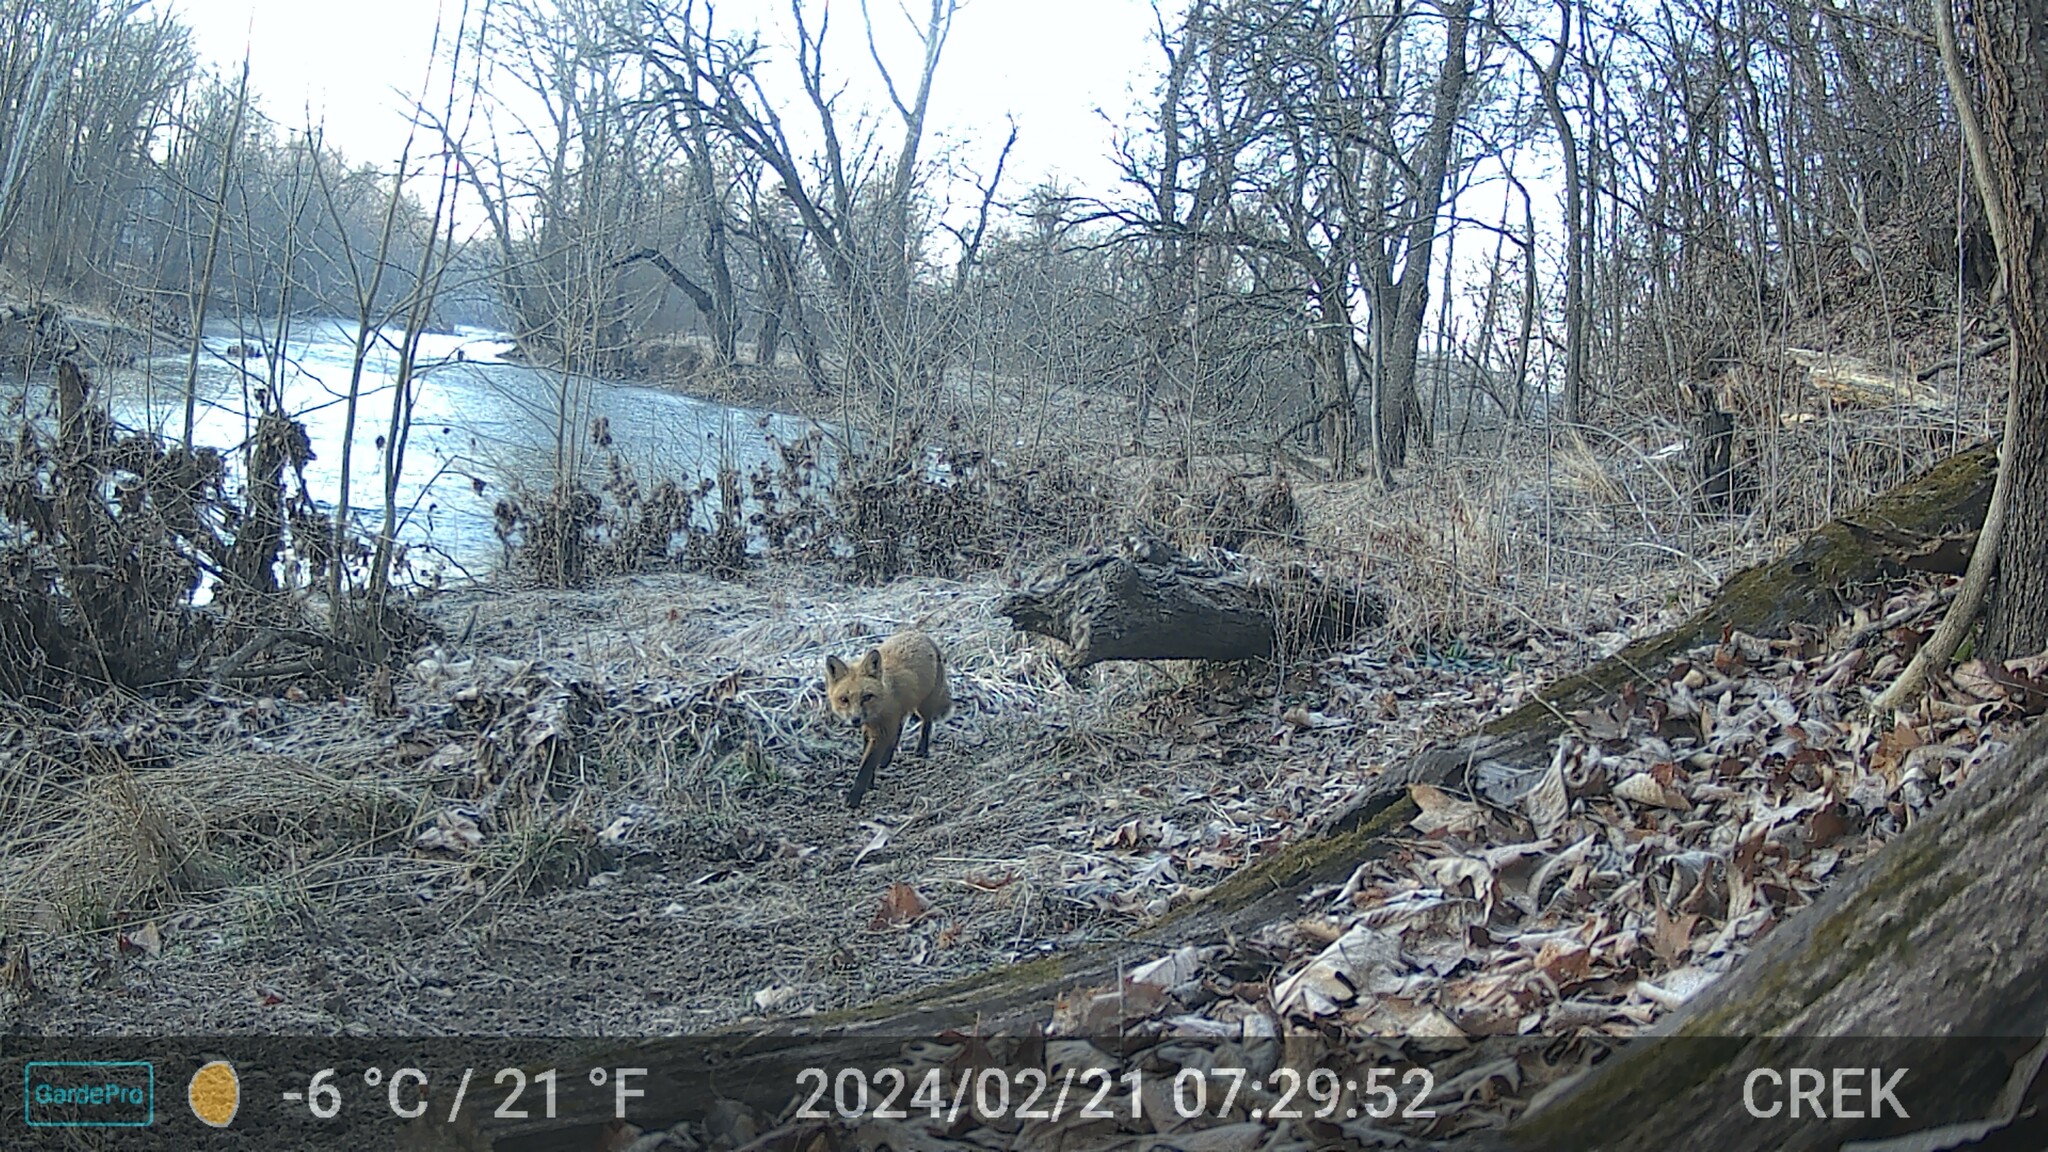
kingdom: Animalia
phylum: Chordata
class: Mammalia
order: Carnivora
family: Canidae
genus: Vulpes
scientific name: Vulpes vulpes
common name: Red fox
